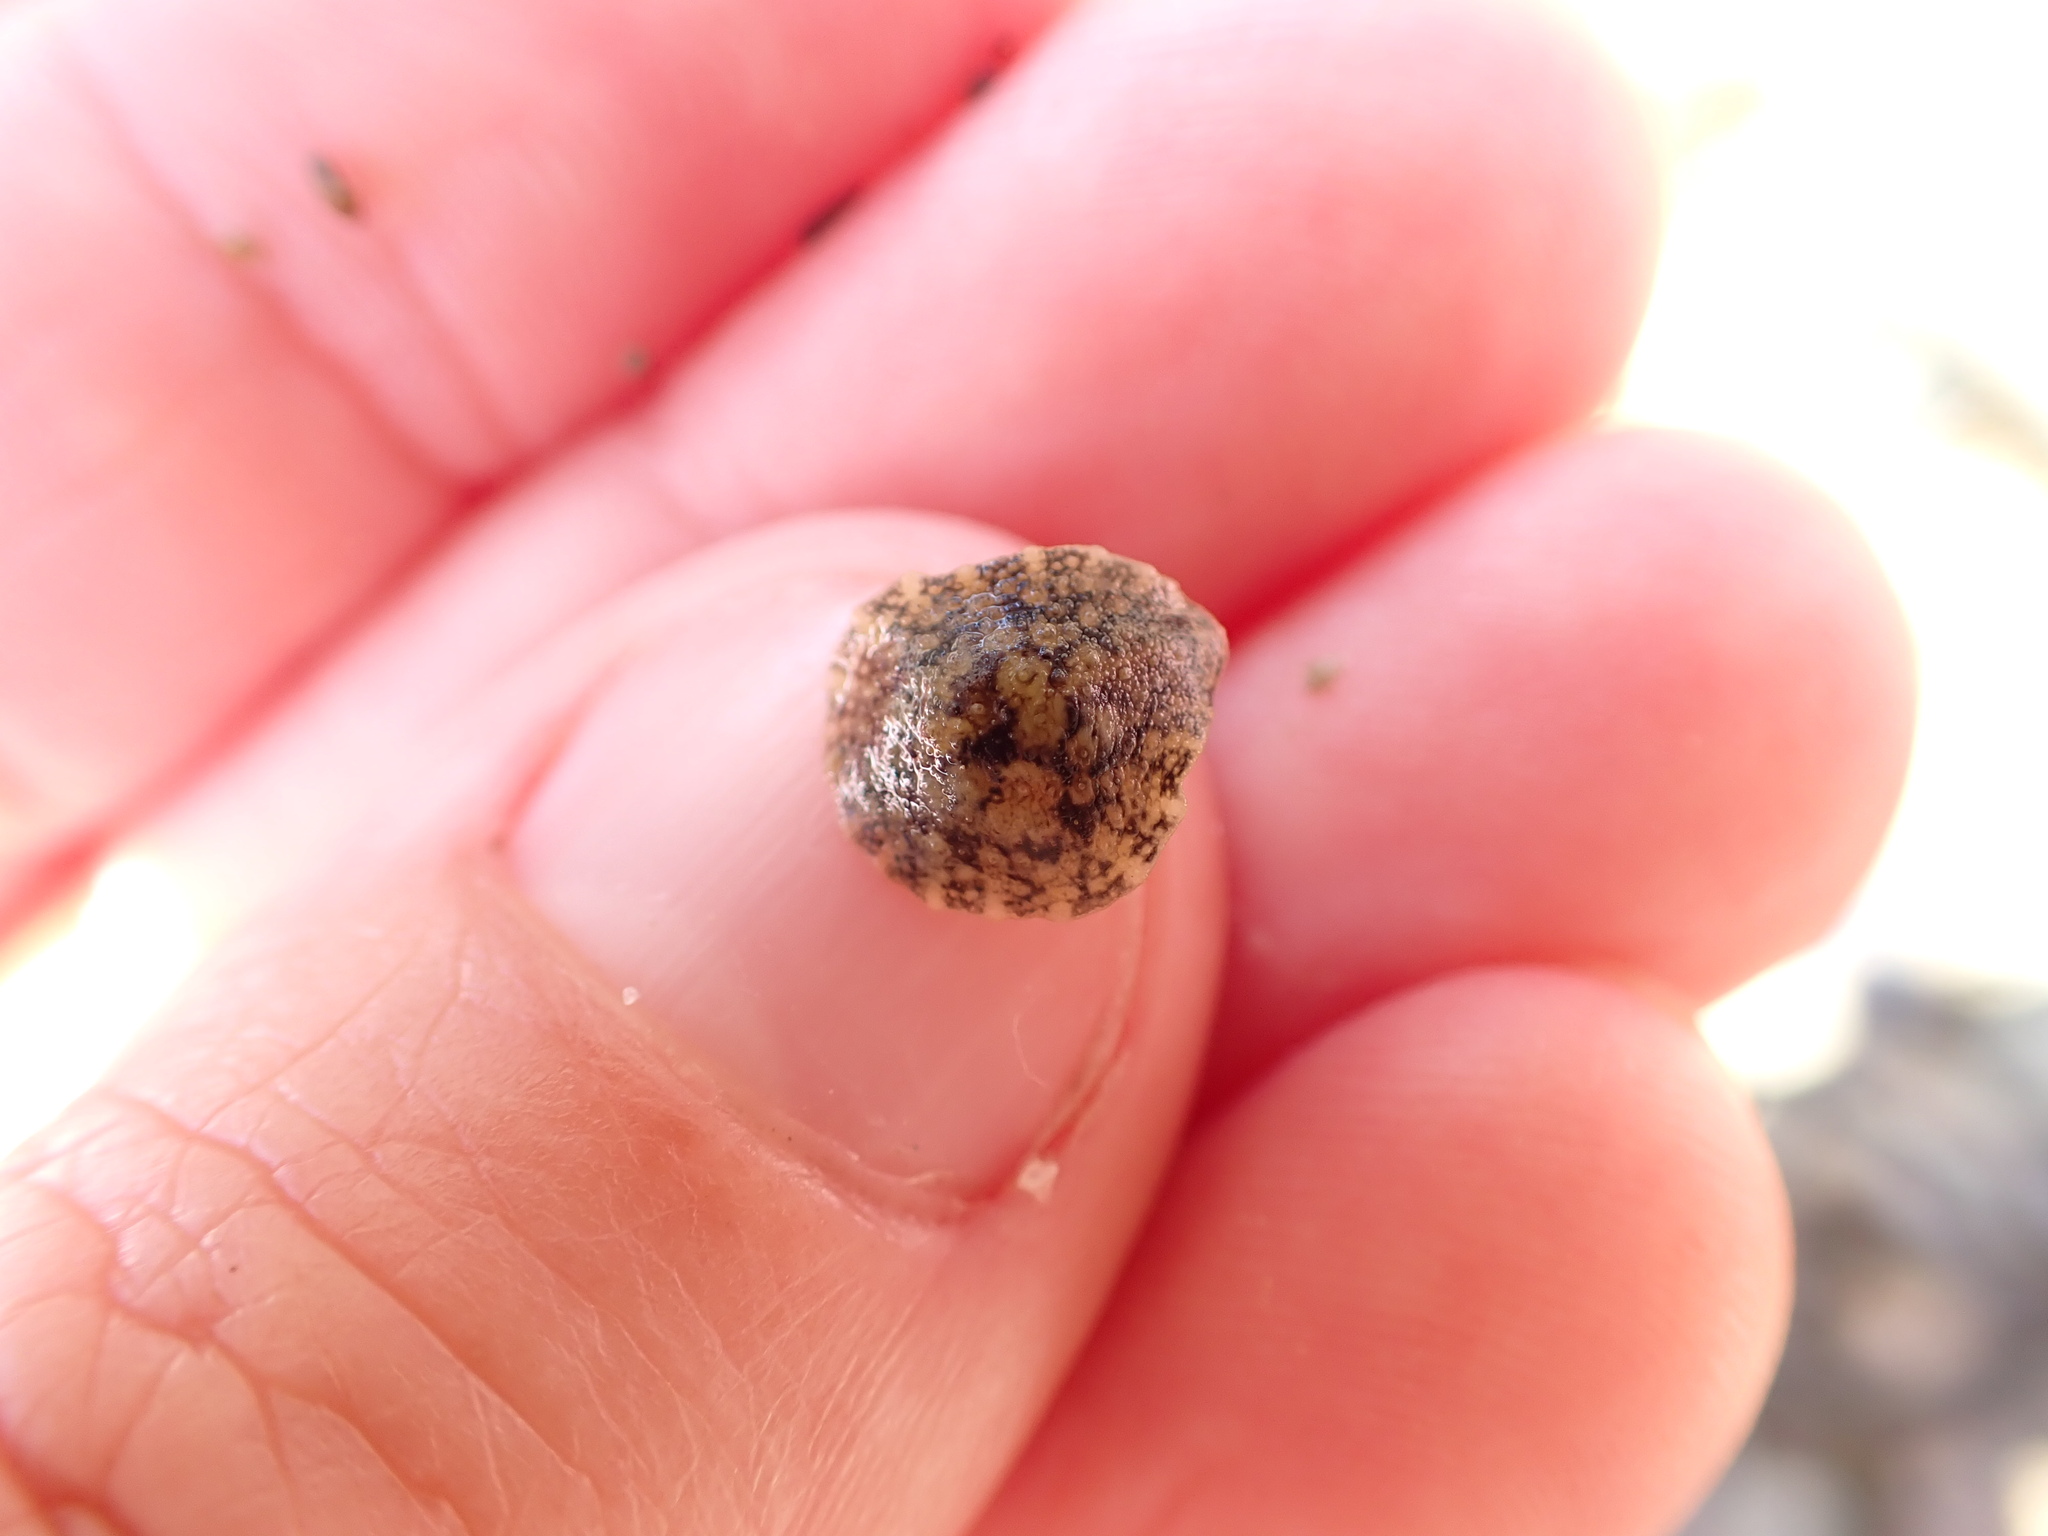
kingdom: Animalia
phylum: Mollusca
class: Gastropoda
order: Systellommatophora
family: Onchidiidae
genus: Onchidella
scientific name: Onchidella nigricans
